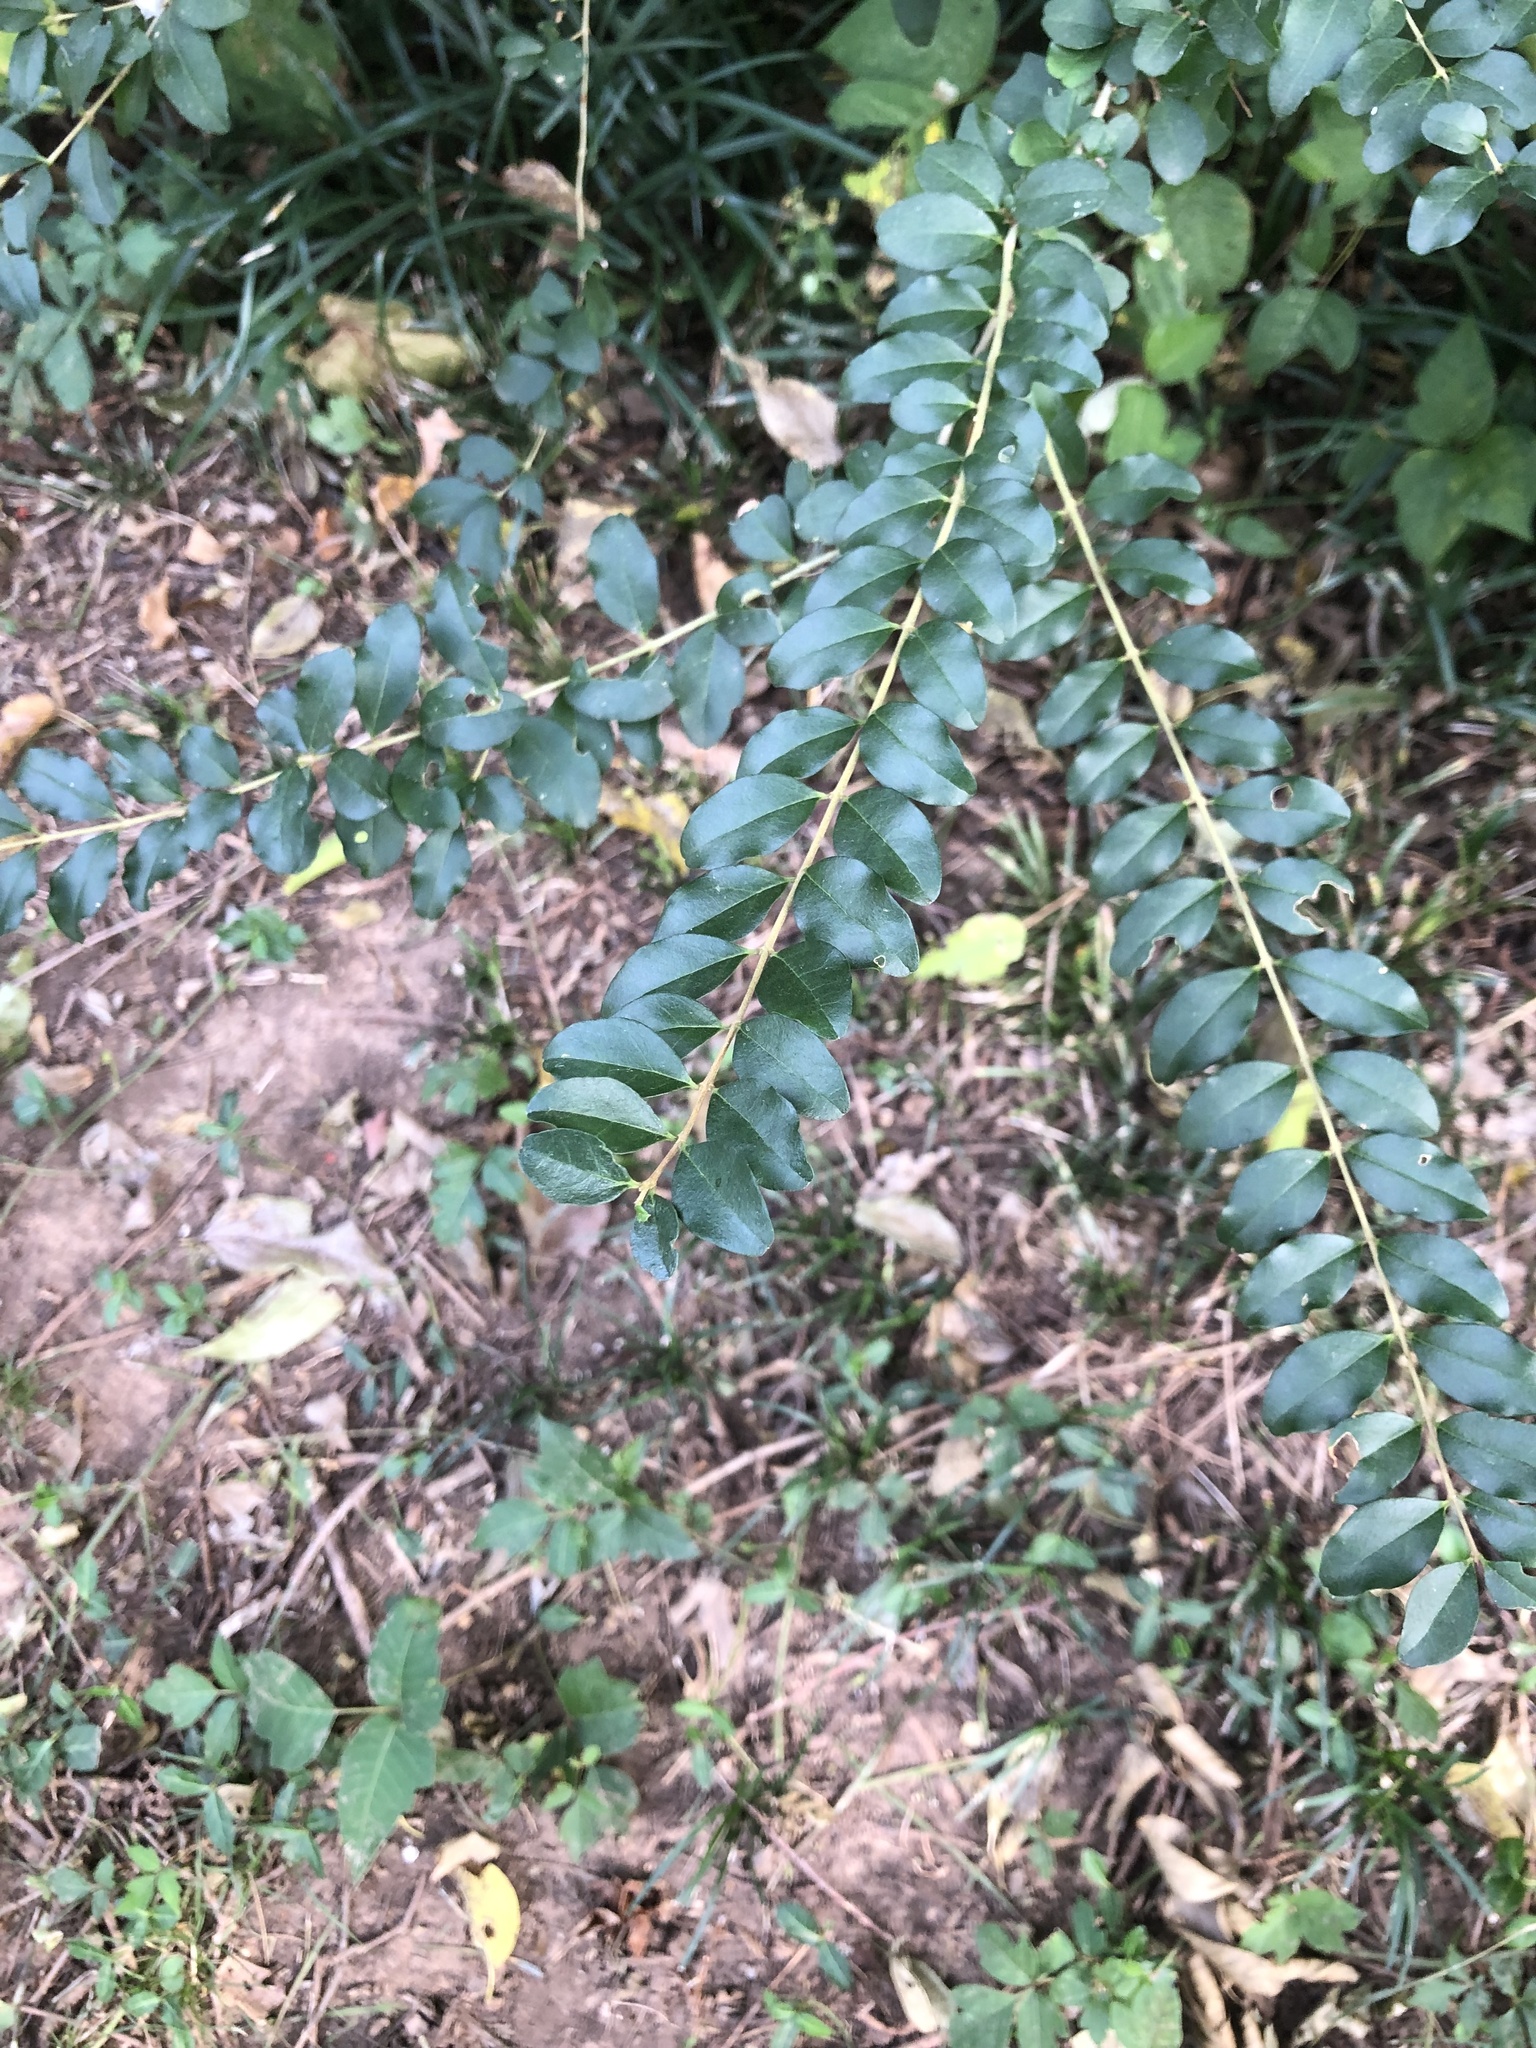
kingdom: Plantae
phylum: Tracheophyta
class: Magnoliopsida
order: Lamiales
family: Oleaceae
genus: Ligustrum
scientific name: Ligustrum sinense
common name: Chinese privet
